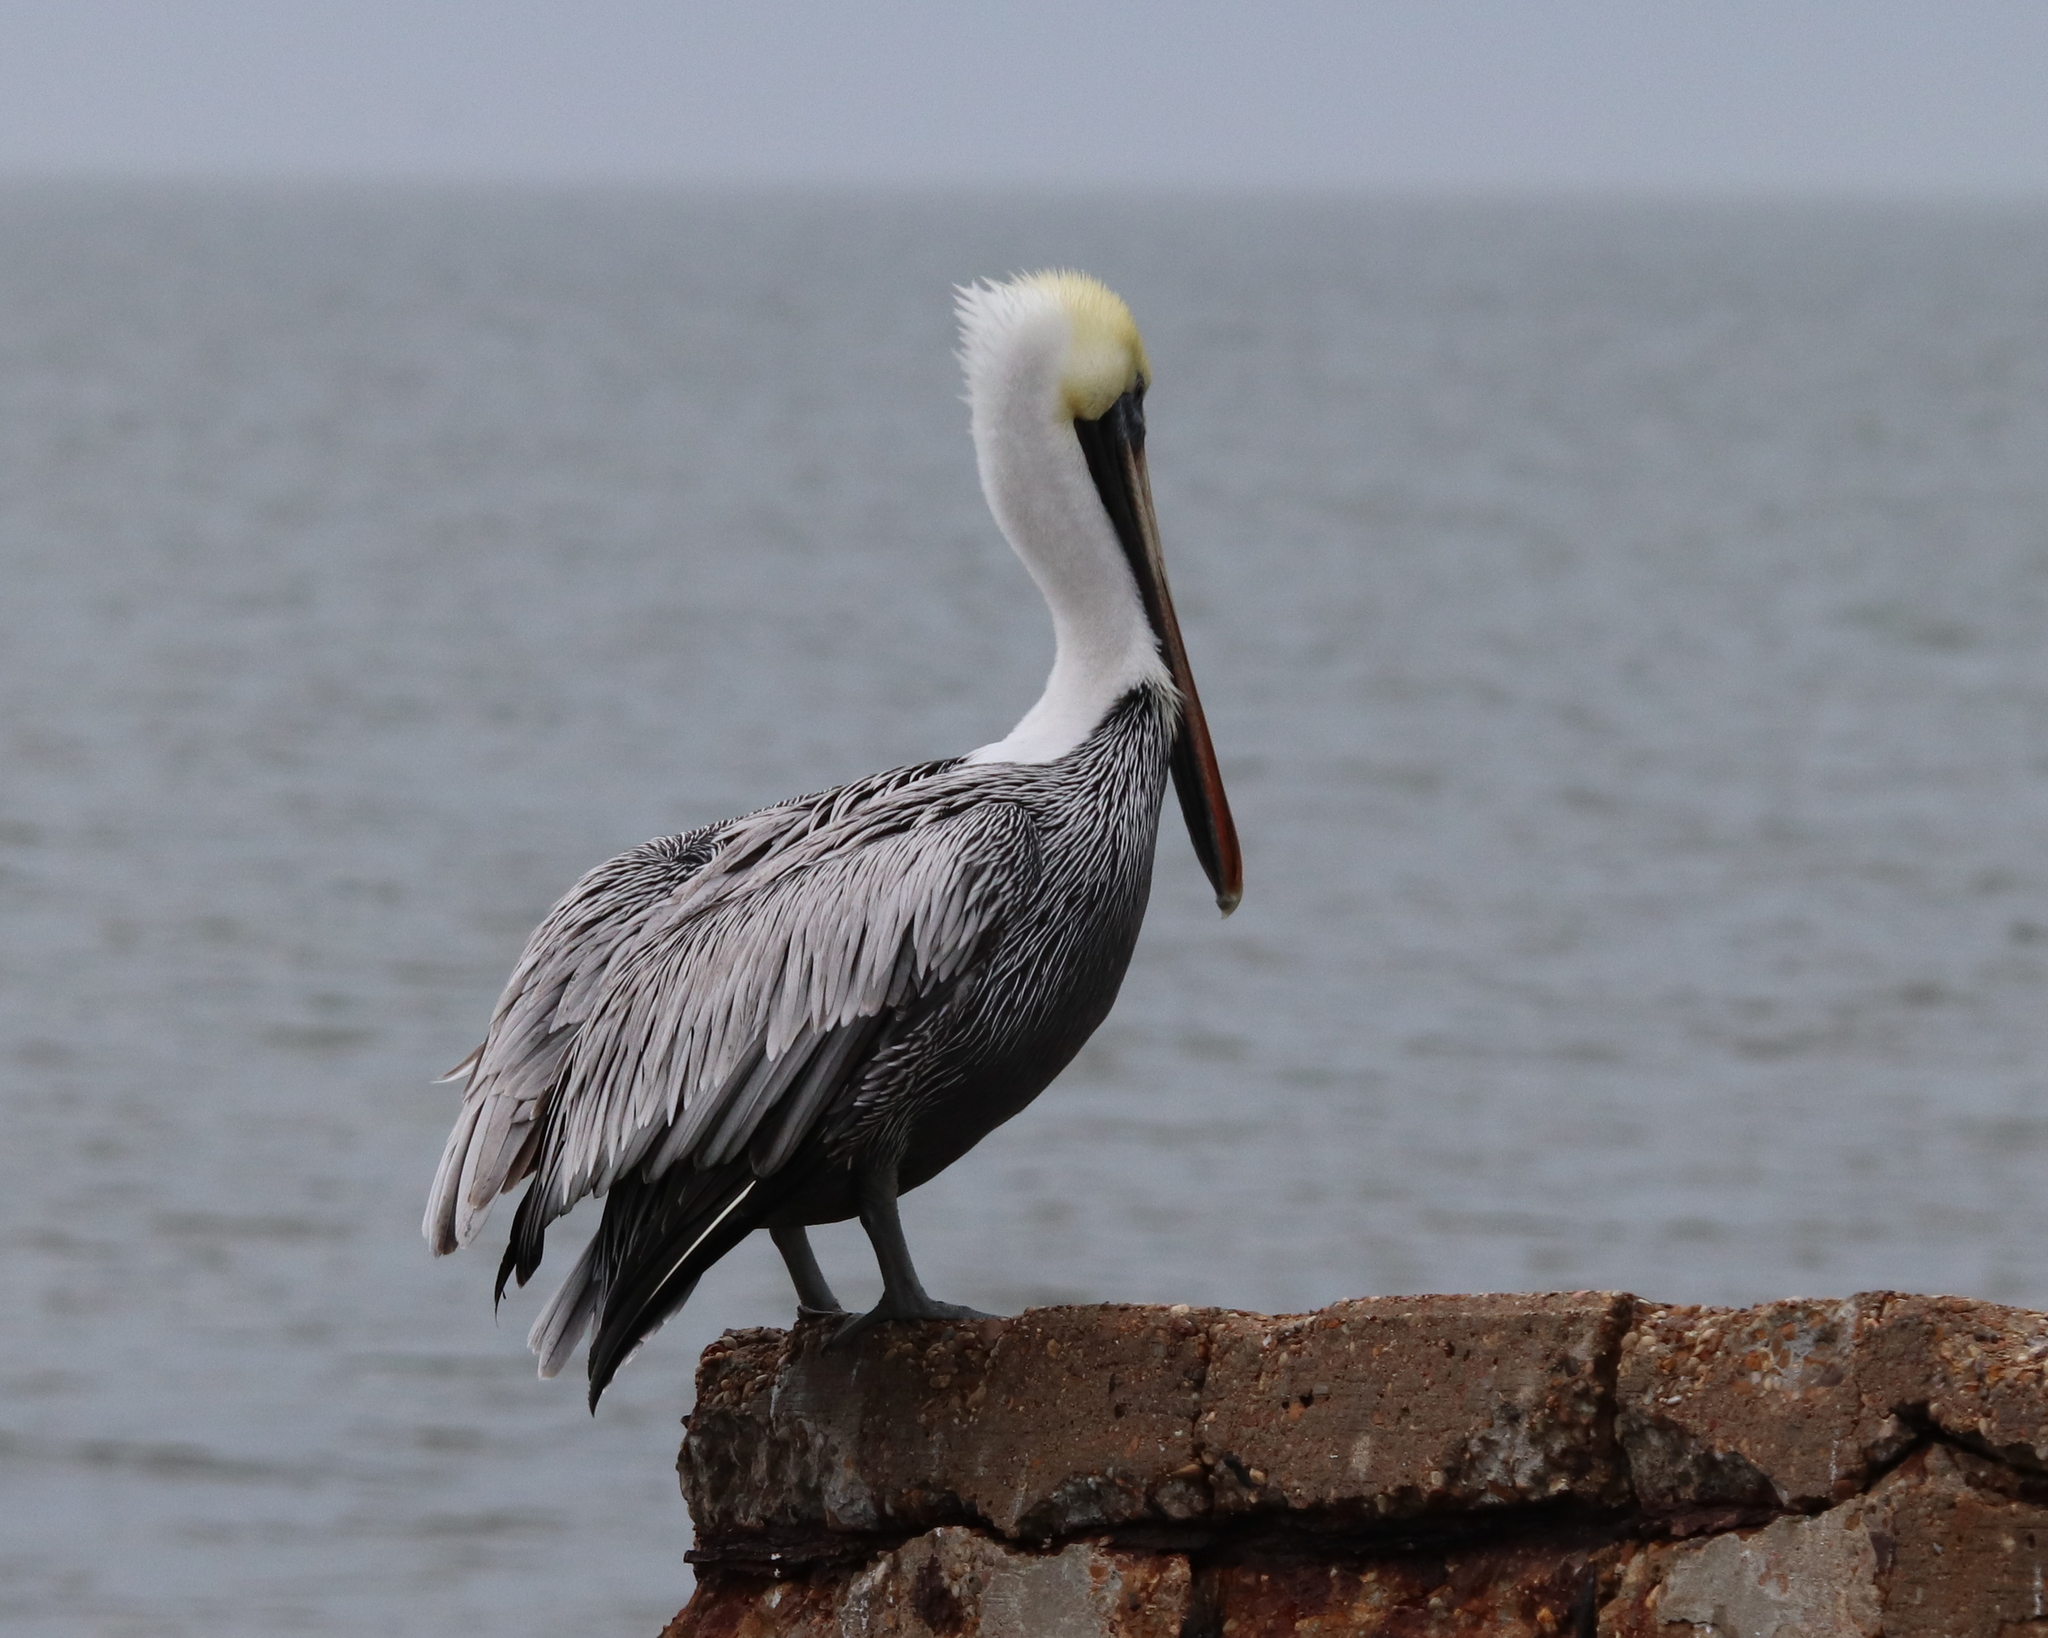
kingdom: Animalia
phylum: Chordata
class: Aves
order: Pelecaniformes
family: Pelecanidae
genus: Pelecanus
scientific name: Pelecanus occidentalis
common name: Brown pelican
